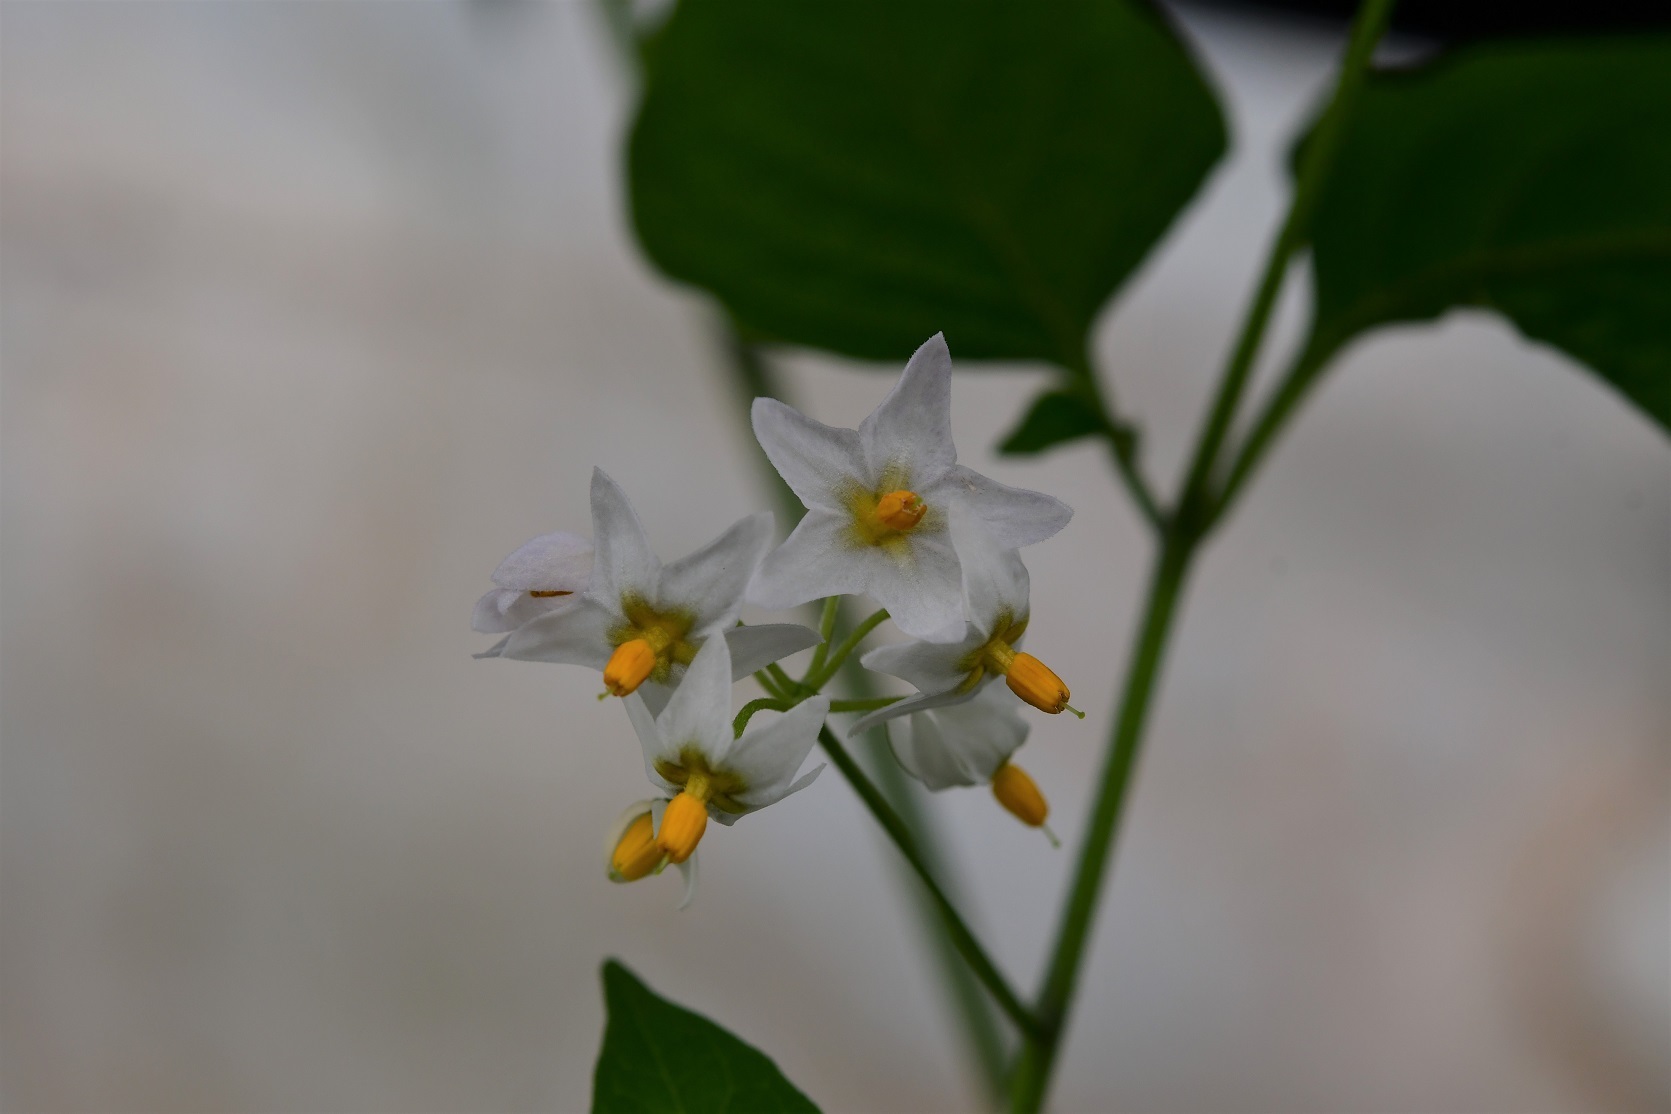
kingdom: Plantae
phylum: Tracheophyta
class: Magnoliopsida
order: Solanales
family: Solanaceae
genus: Solanum
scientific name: Solanum americanum
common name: American black nightshade
